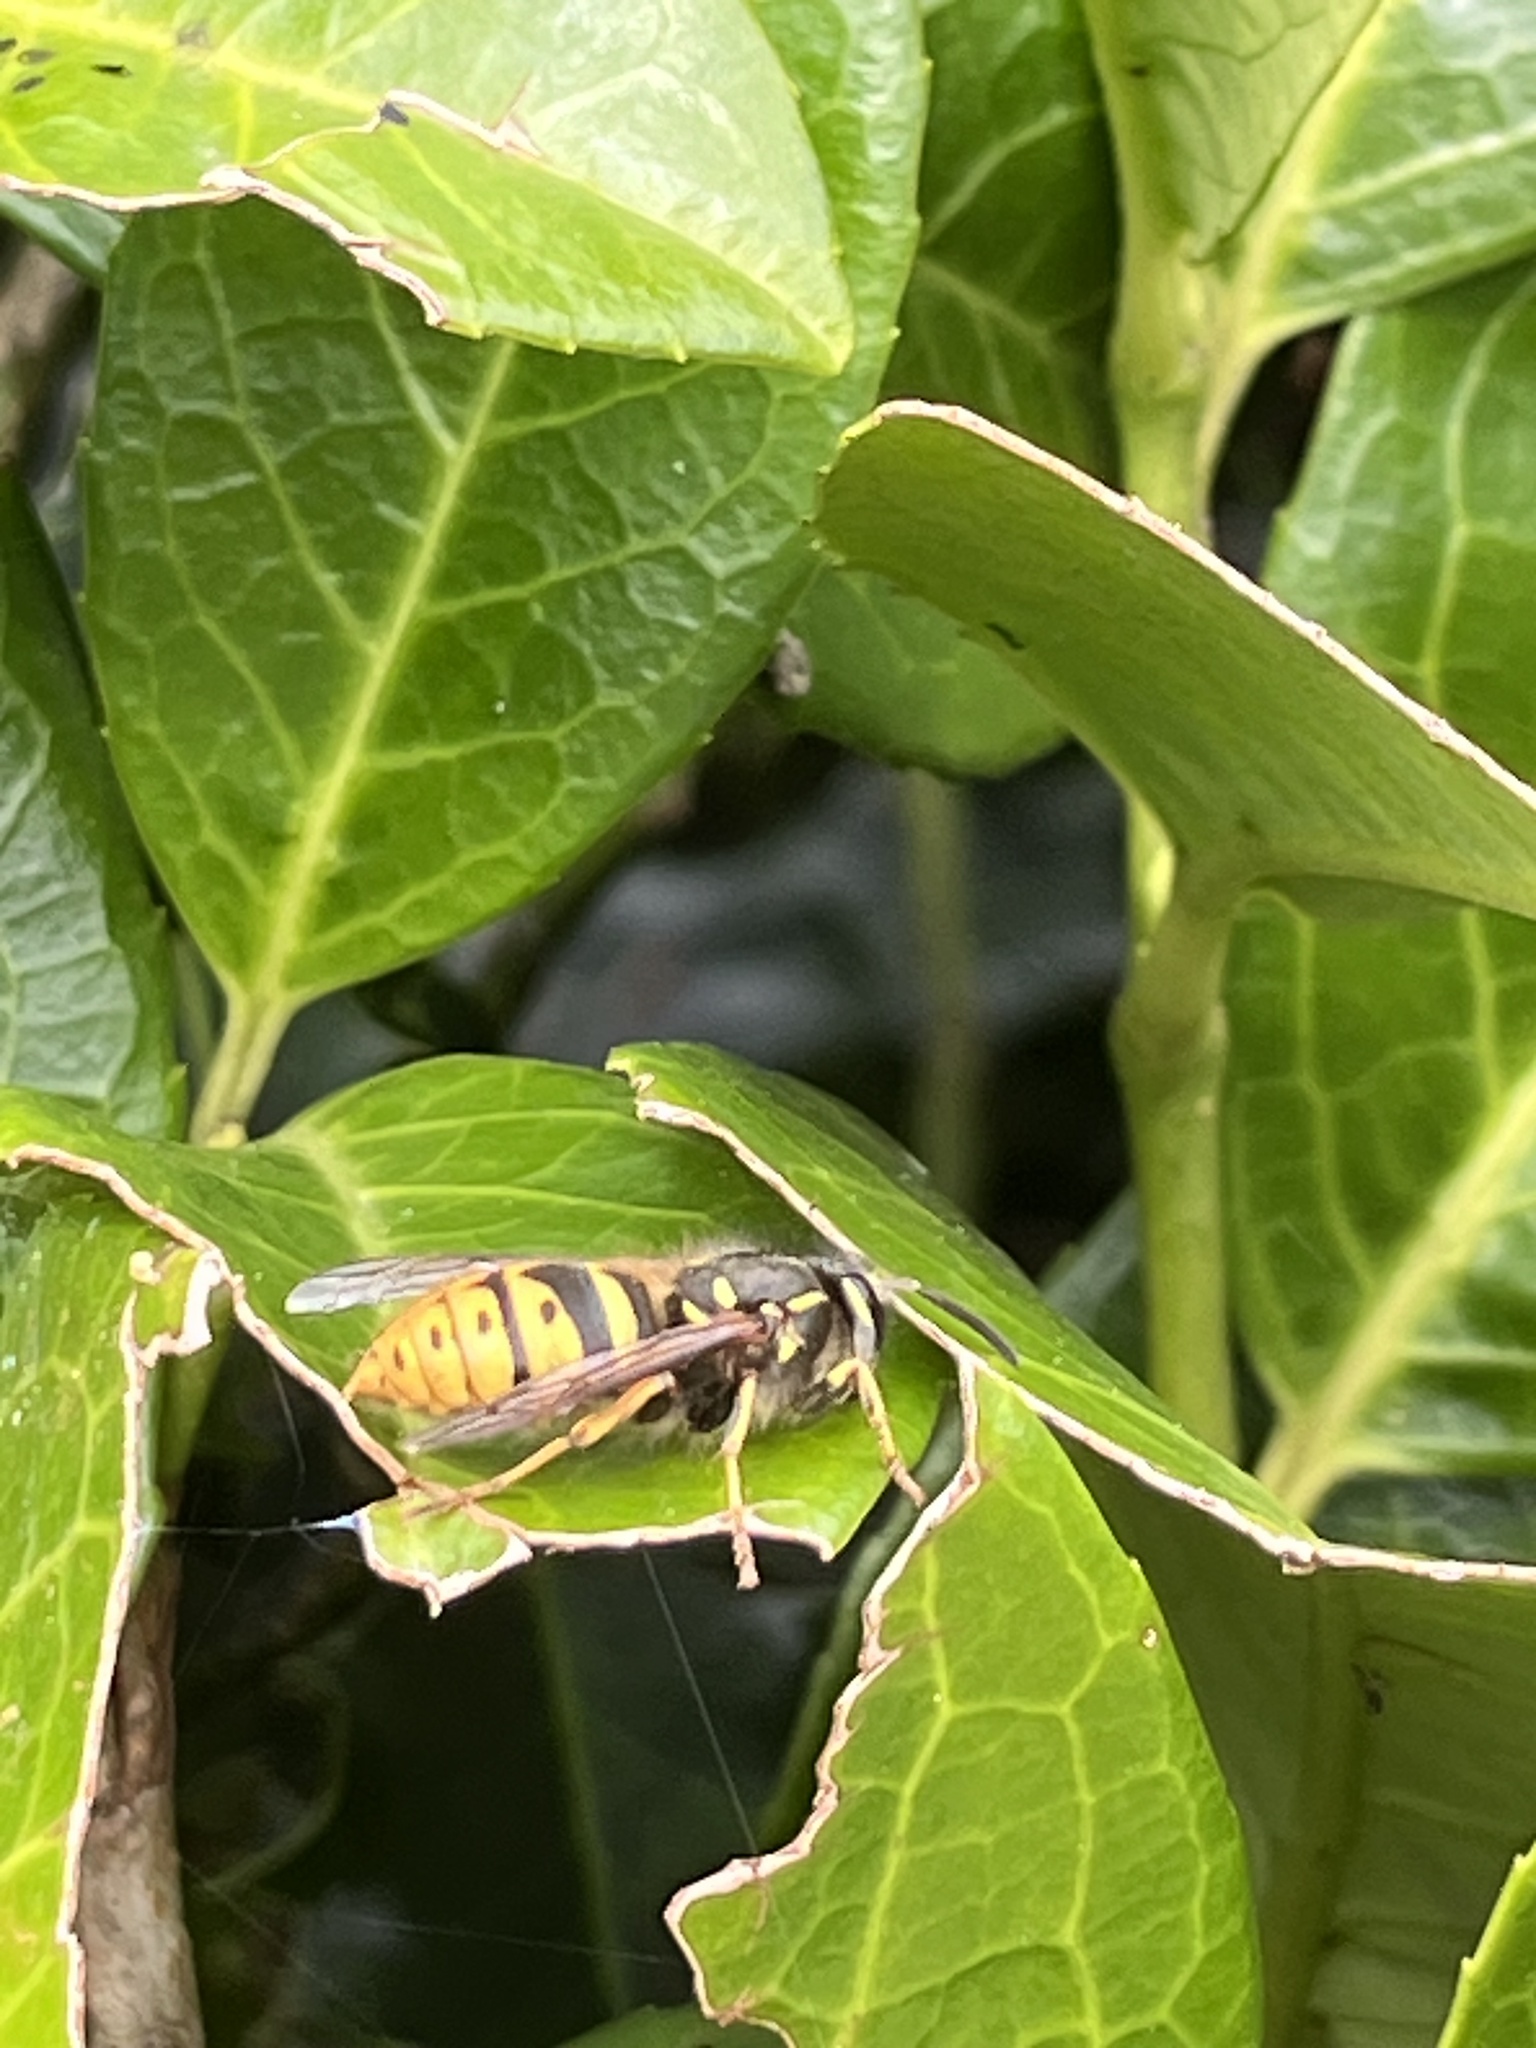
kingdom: Animalia
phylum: Arthropoda
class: Insecta
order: Hymenoptera
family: Vespidae
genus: Vespula
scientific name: Vespula vulgaris
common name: Common wasp
